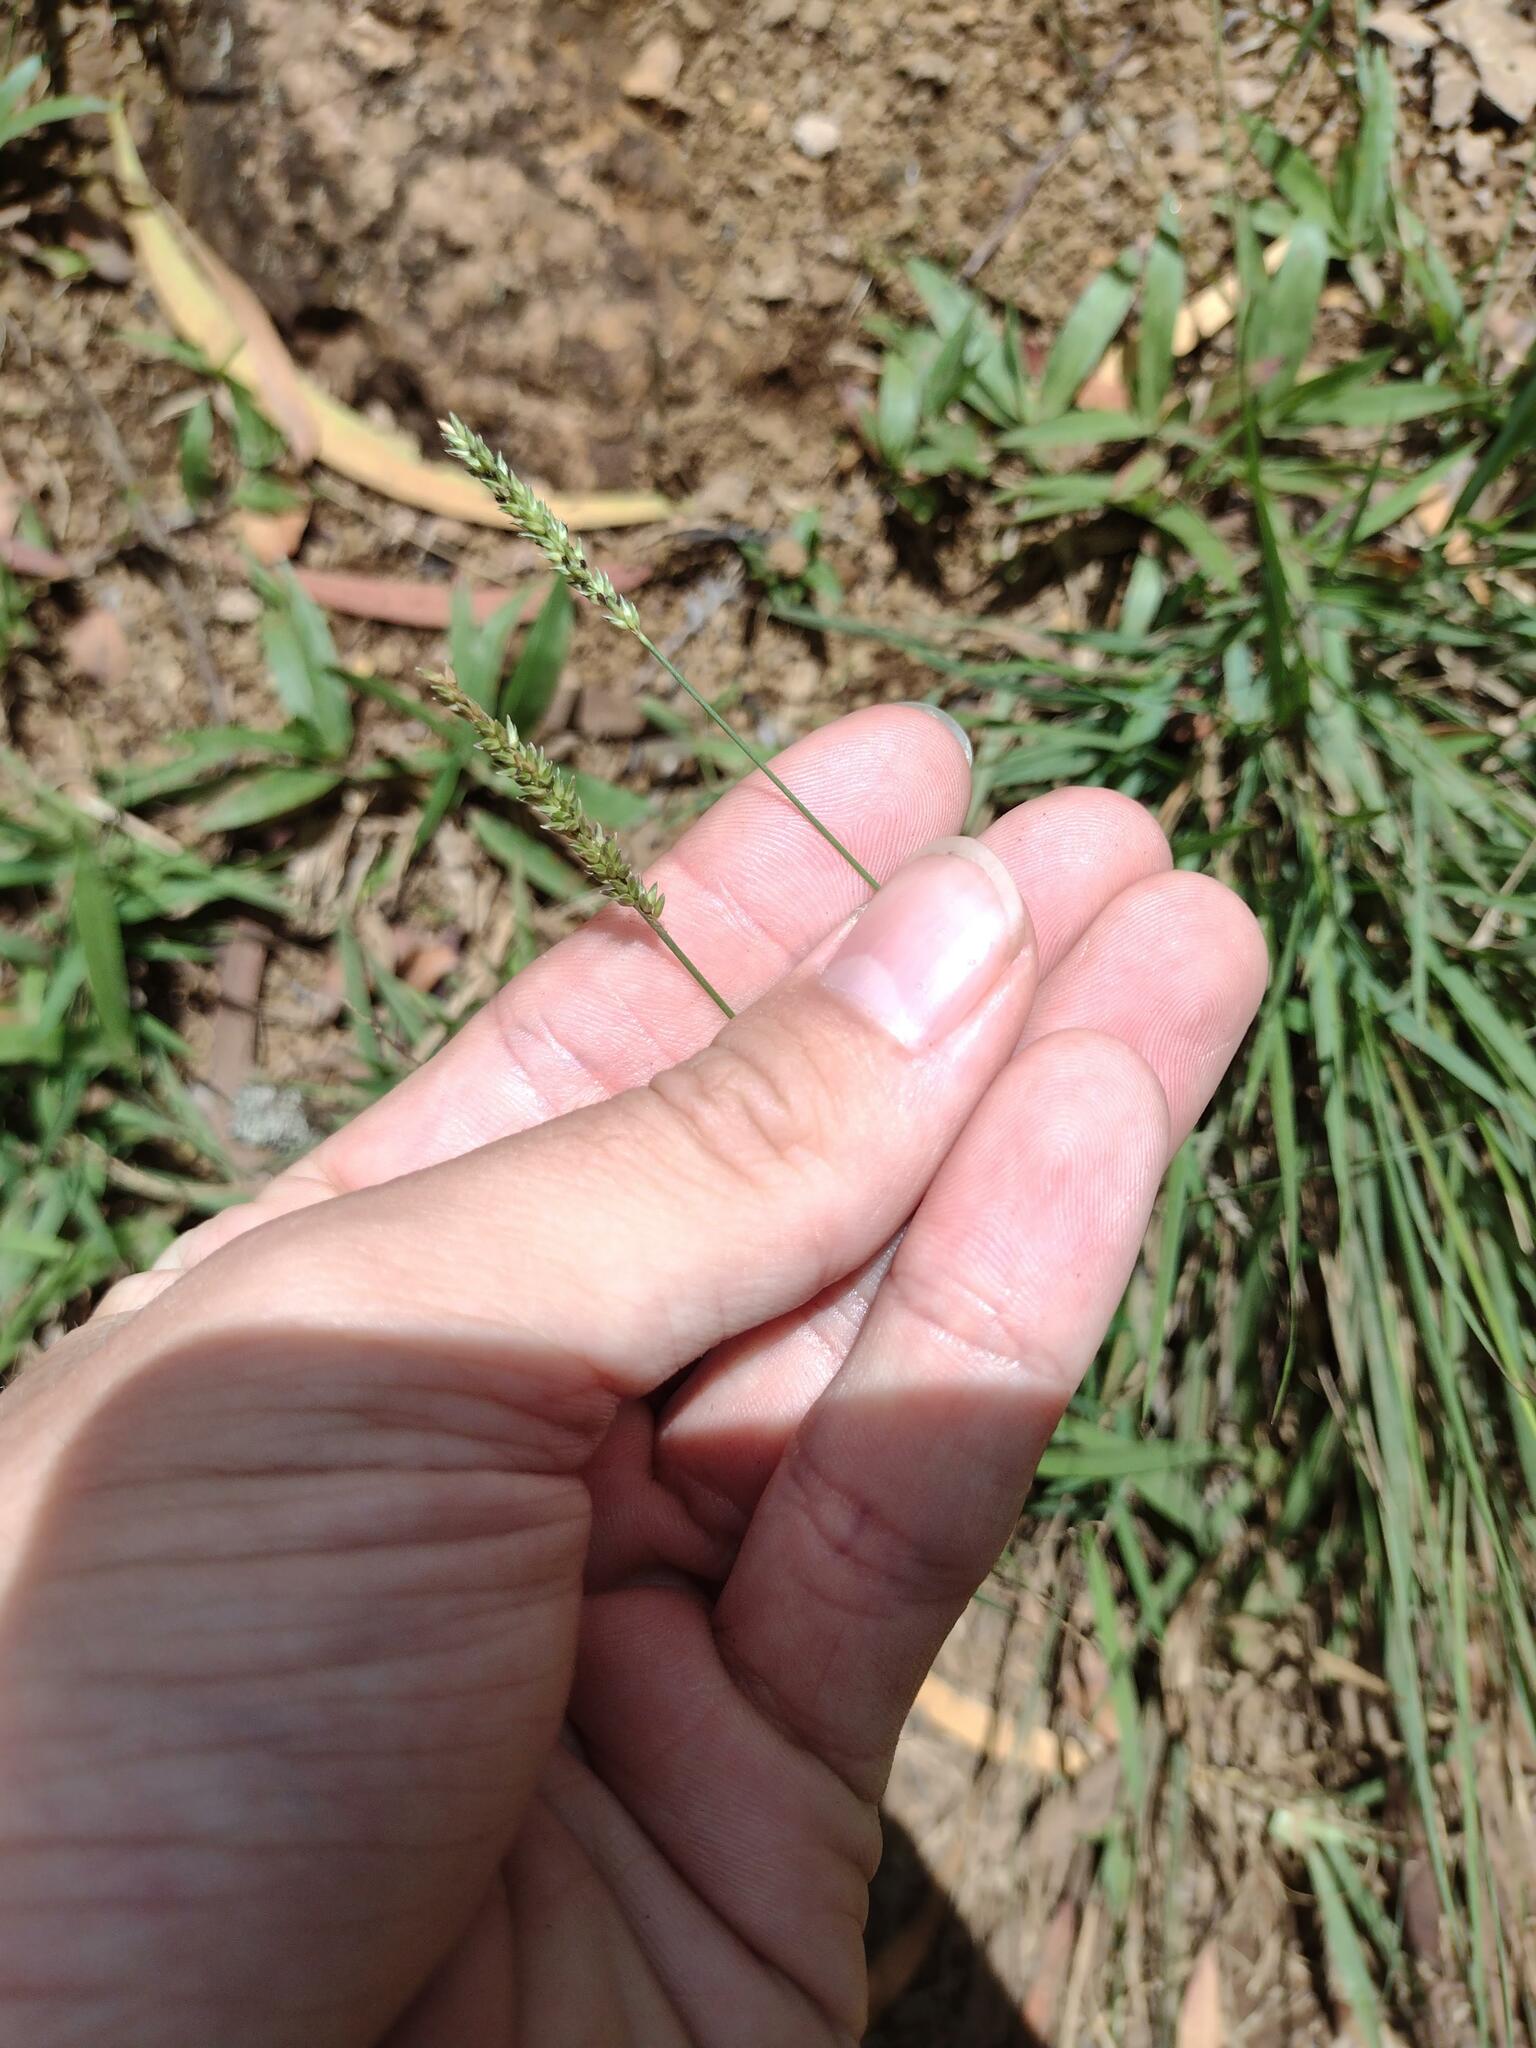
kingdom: Plantae
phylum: Tracheophyta
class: Liliopsida
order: Poales
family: Poaceae
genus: Sacciolepis
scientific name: Sacciolepis indica
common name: Glenwoodgrass
